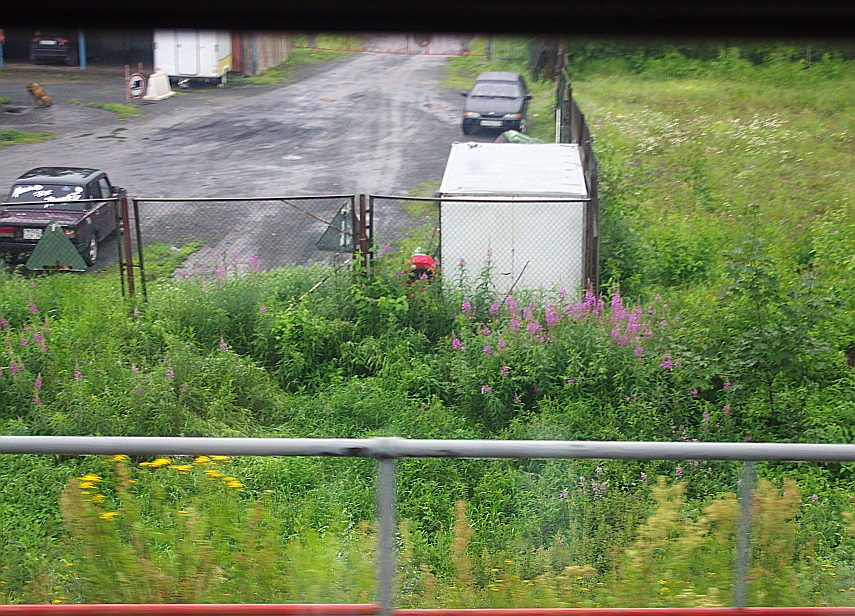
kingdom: Plantae
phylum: Tracheophyta
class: Magnoliopsida
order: Myrtales
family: Onagraceae
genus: Chamaenerion
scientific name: Chamaenerion angustifolium
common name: Fireweed
